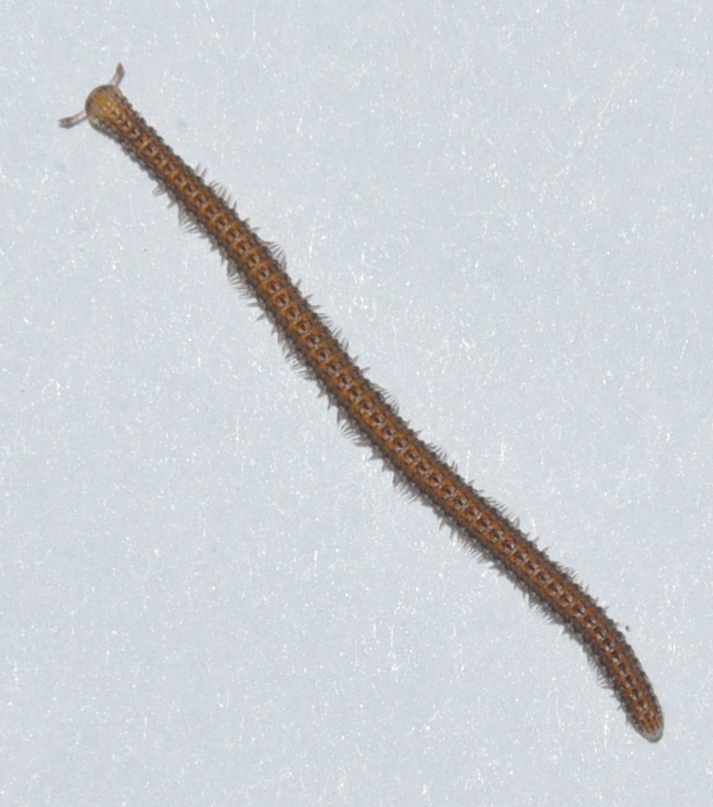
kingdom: Animalia
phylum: Arthropoda
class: Diplopoda
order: Spirostreptida
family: Cambalopsidae
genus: Glyphiulus
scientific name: Glyphiulus granulatus
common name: Millipede
